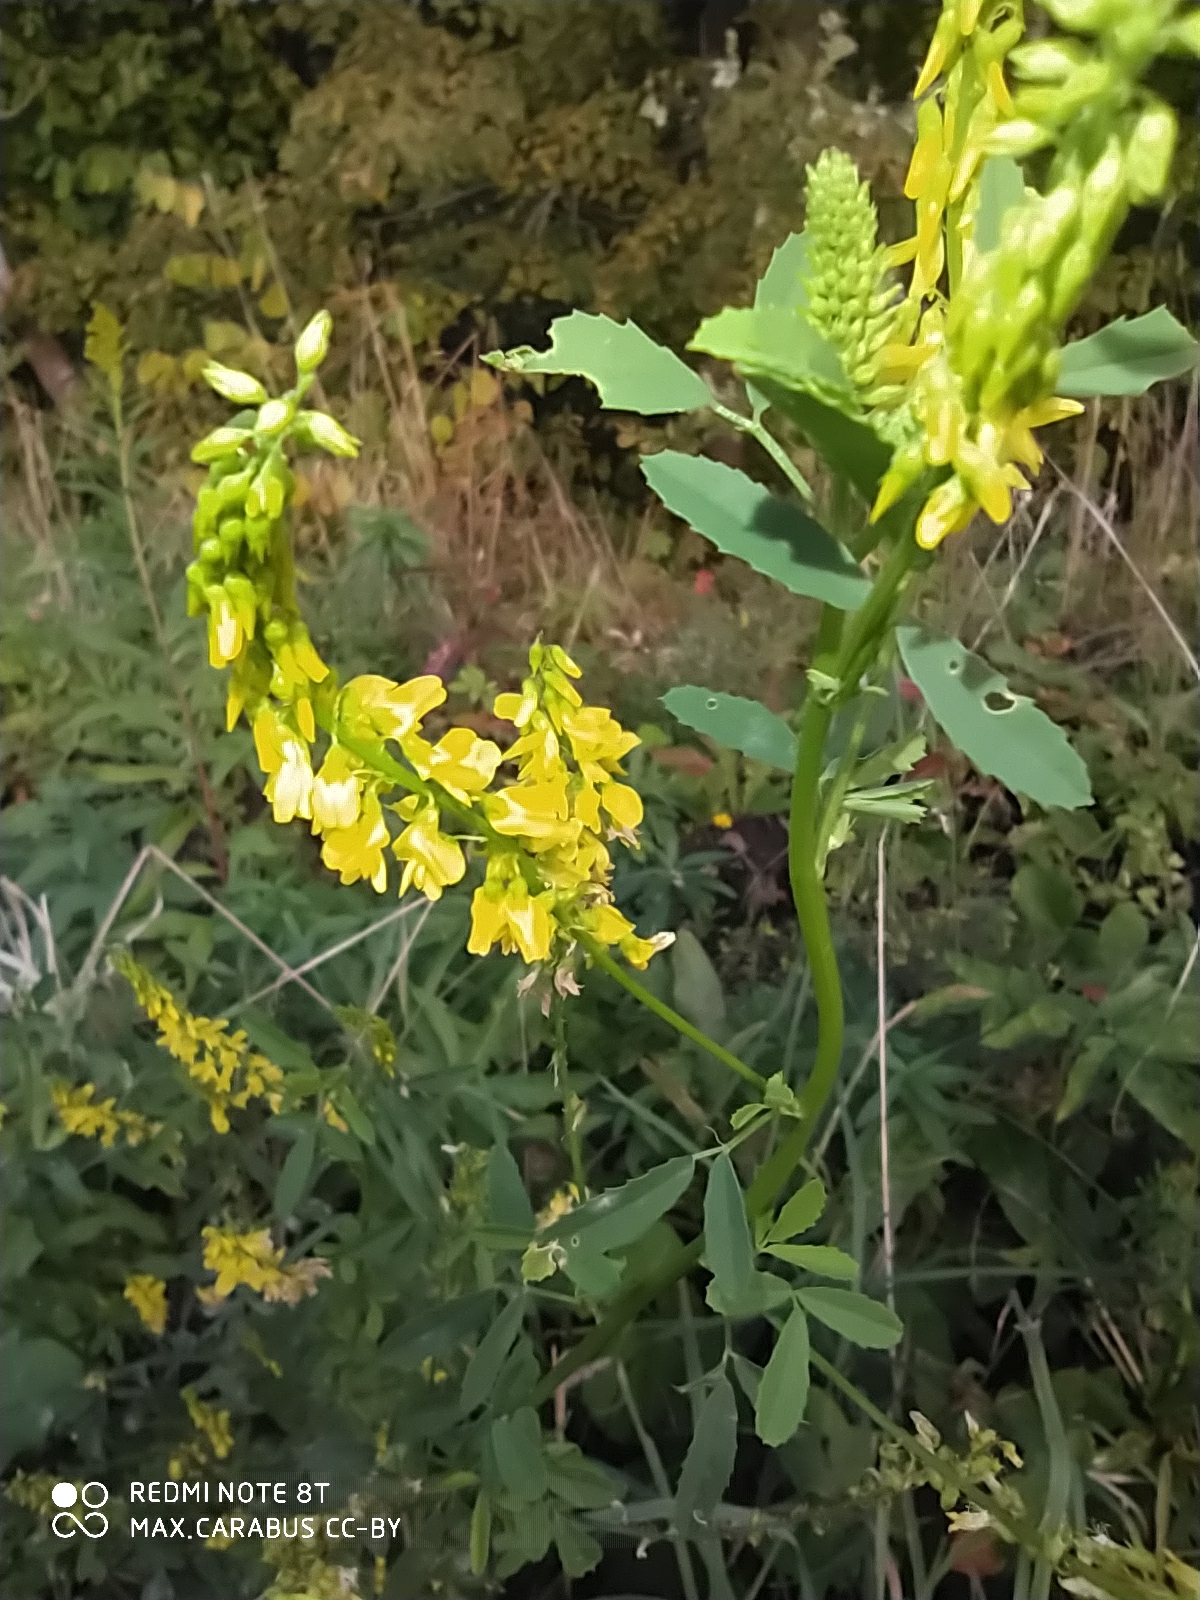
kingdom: Plantae
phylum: Tracheophyta
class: Magnoliopsida
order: Fabales
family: Fabaceae
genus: Melilotus
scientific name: Melilotus officinalis
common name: Sweetclover
